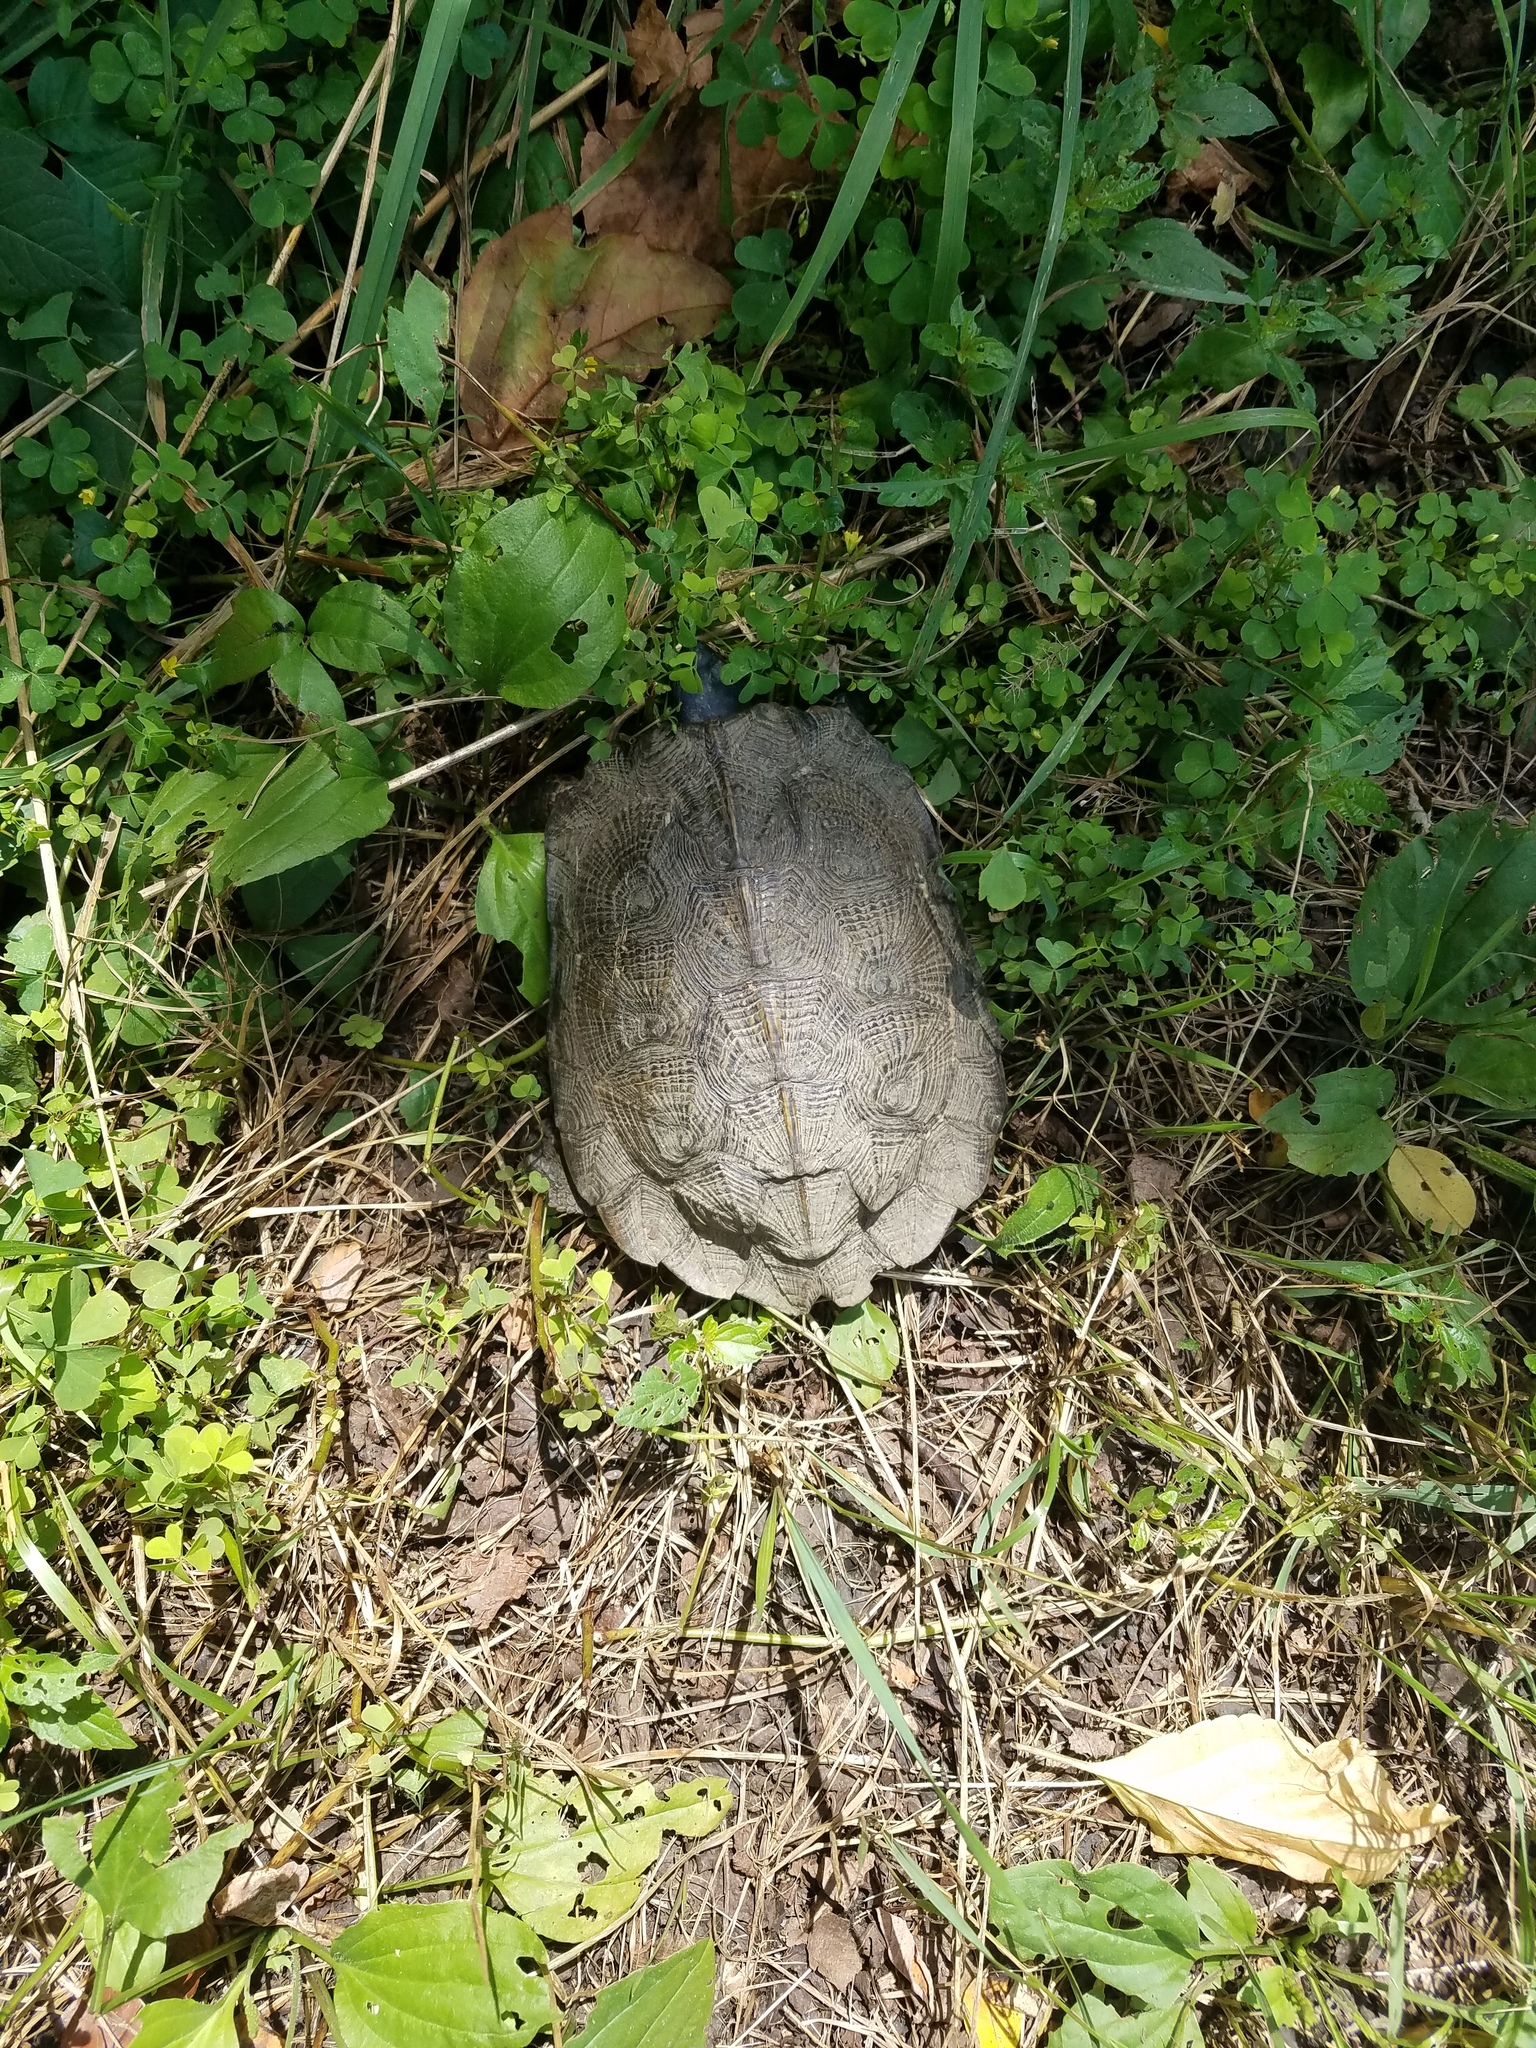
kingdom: Animalia
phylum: Chordata
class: Testudines
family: Emydidae
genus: Glyptemys
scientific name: Glyptemys insculpta
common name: Wood turtle
